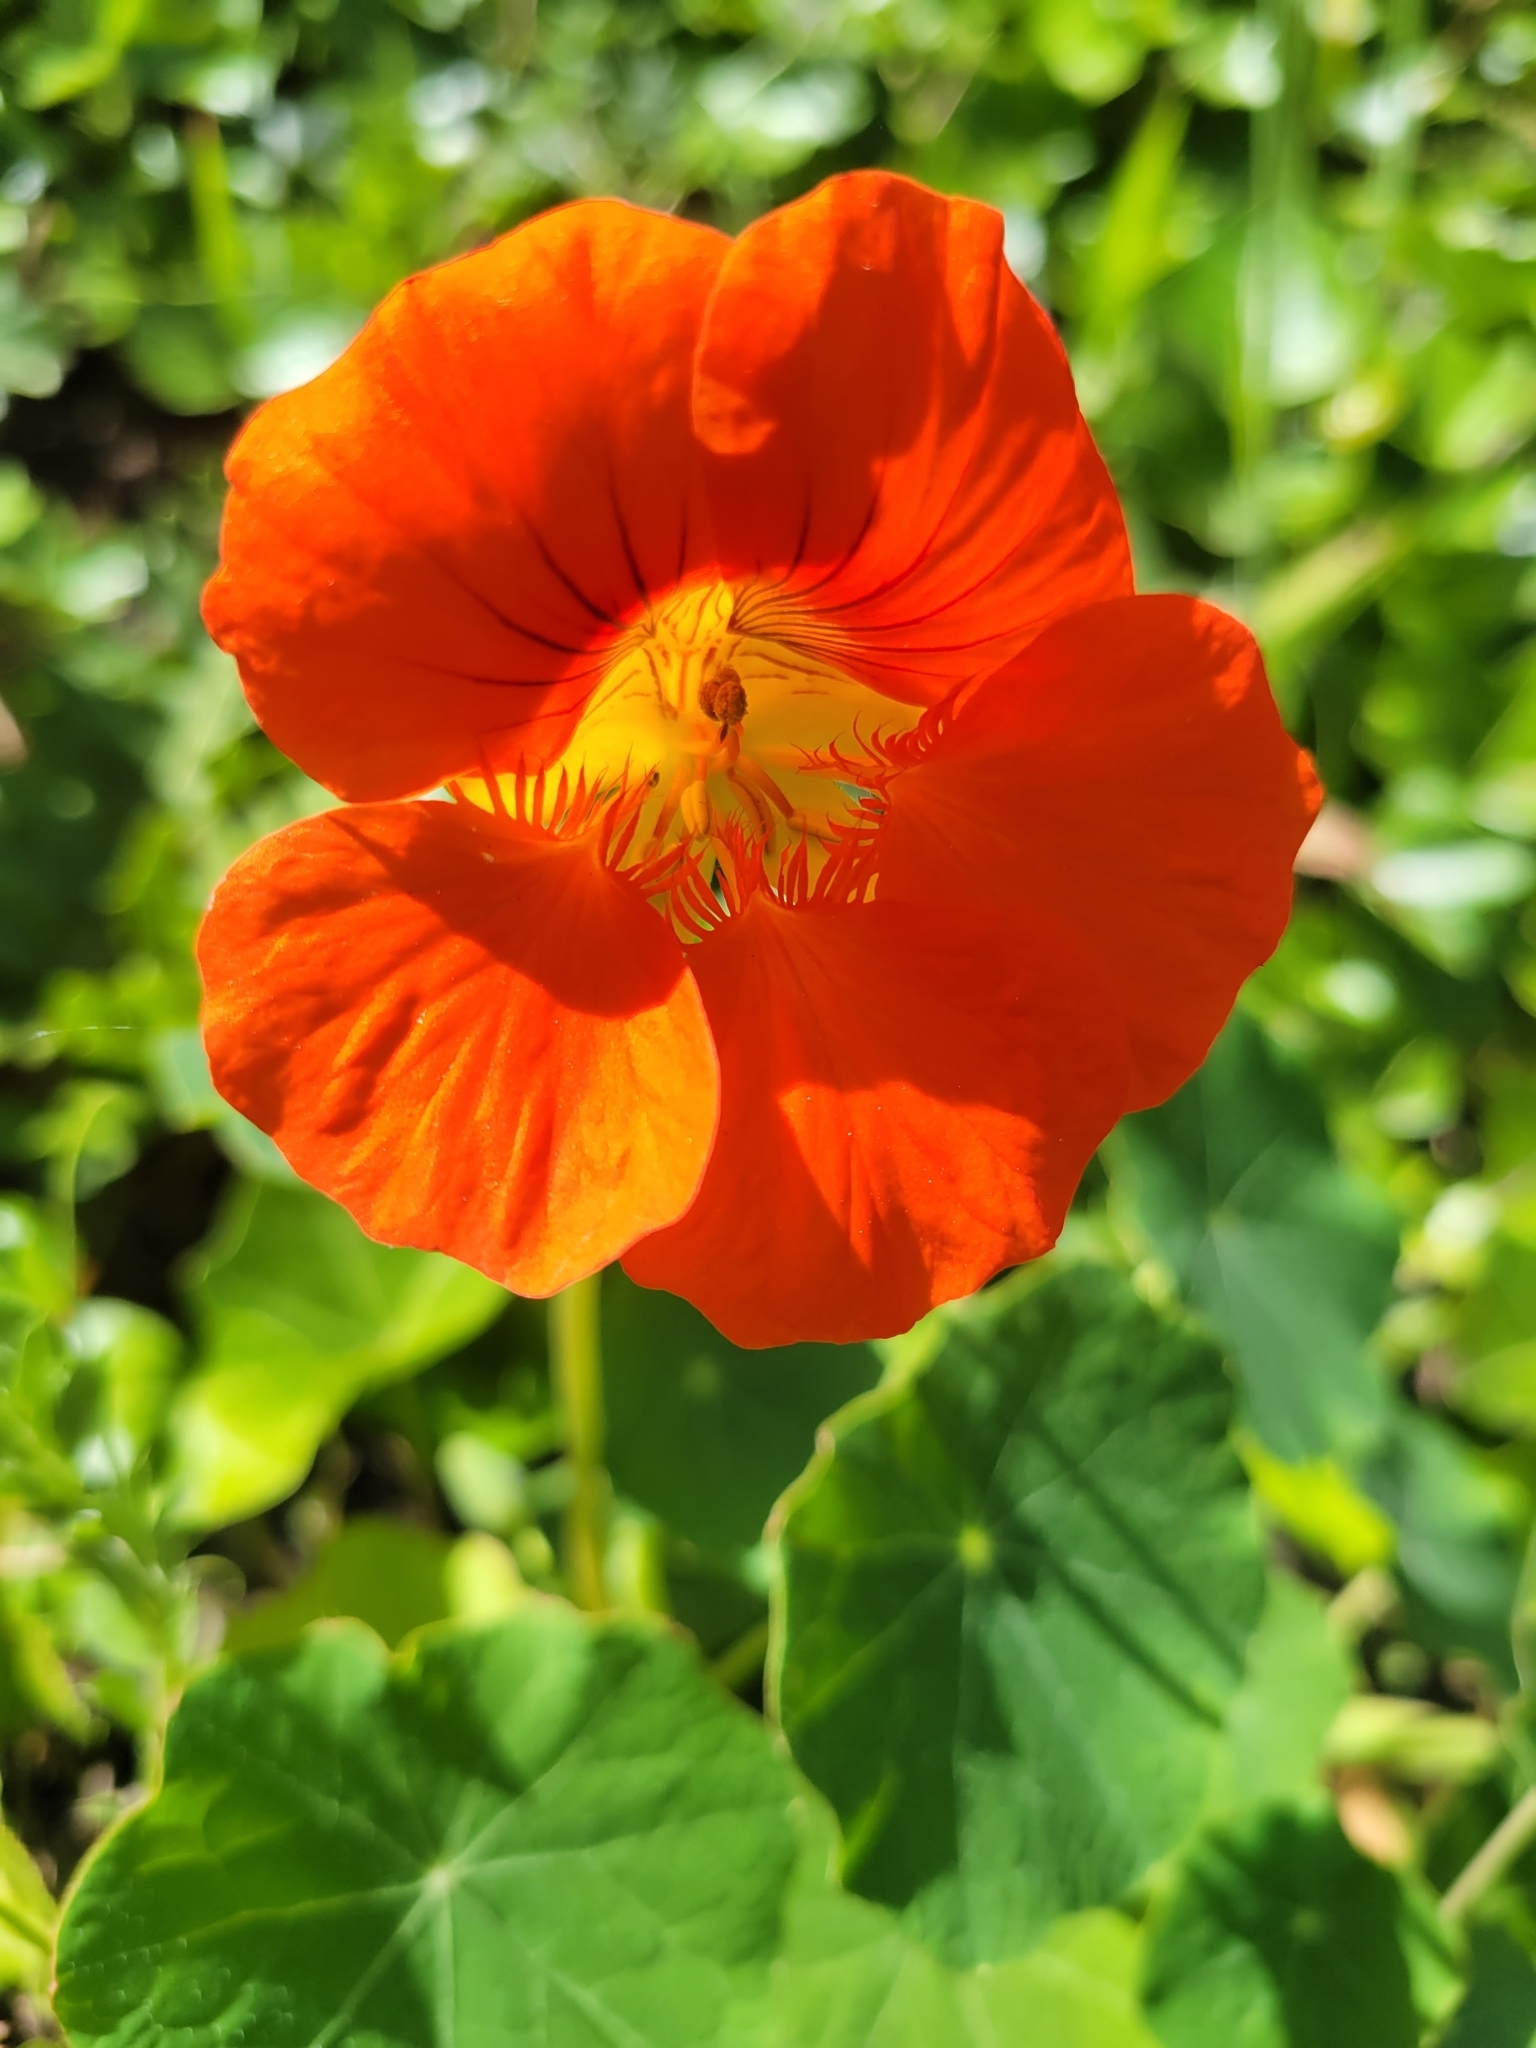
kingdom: Plantae
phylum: Tracheophyta
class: Magnoliopsida
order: Brassicales
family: Tropaeolaceae
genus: Tropaeolum
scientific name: Tropaeolum majus
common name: Nasturtium
